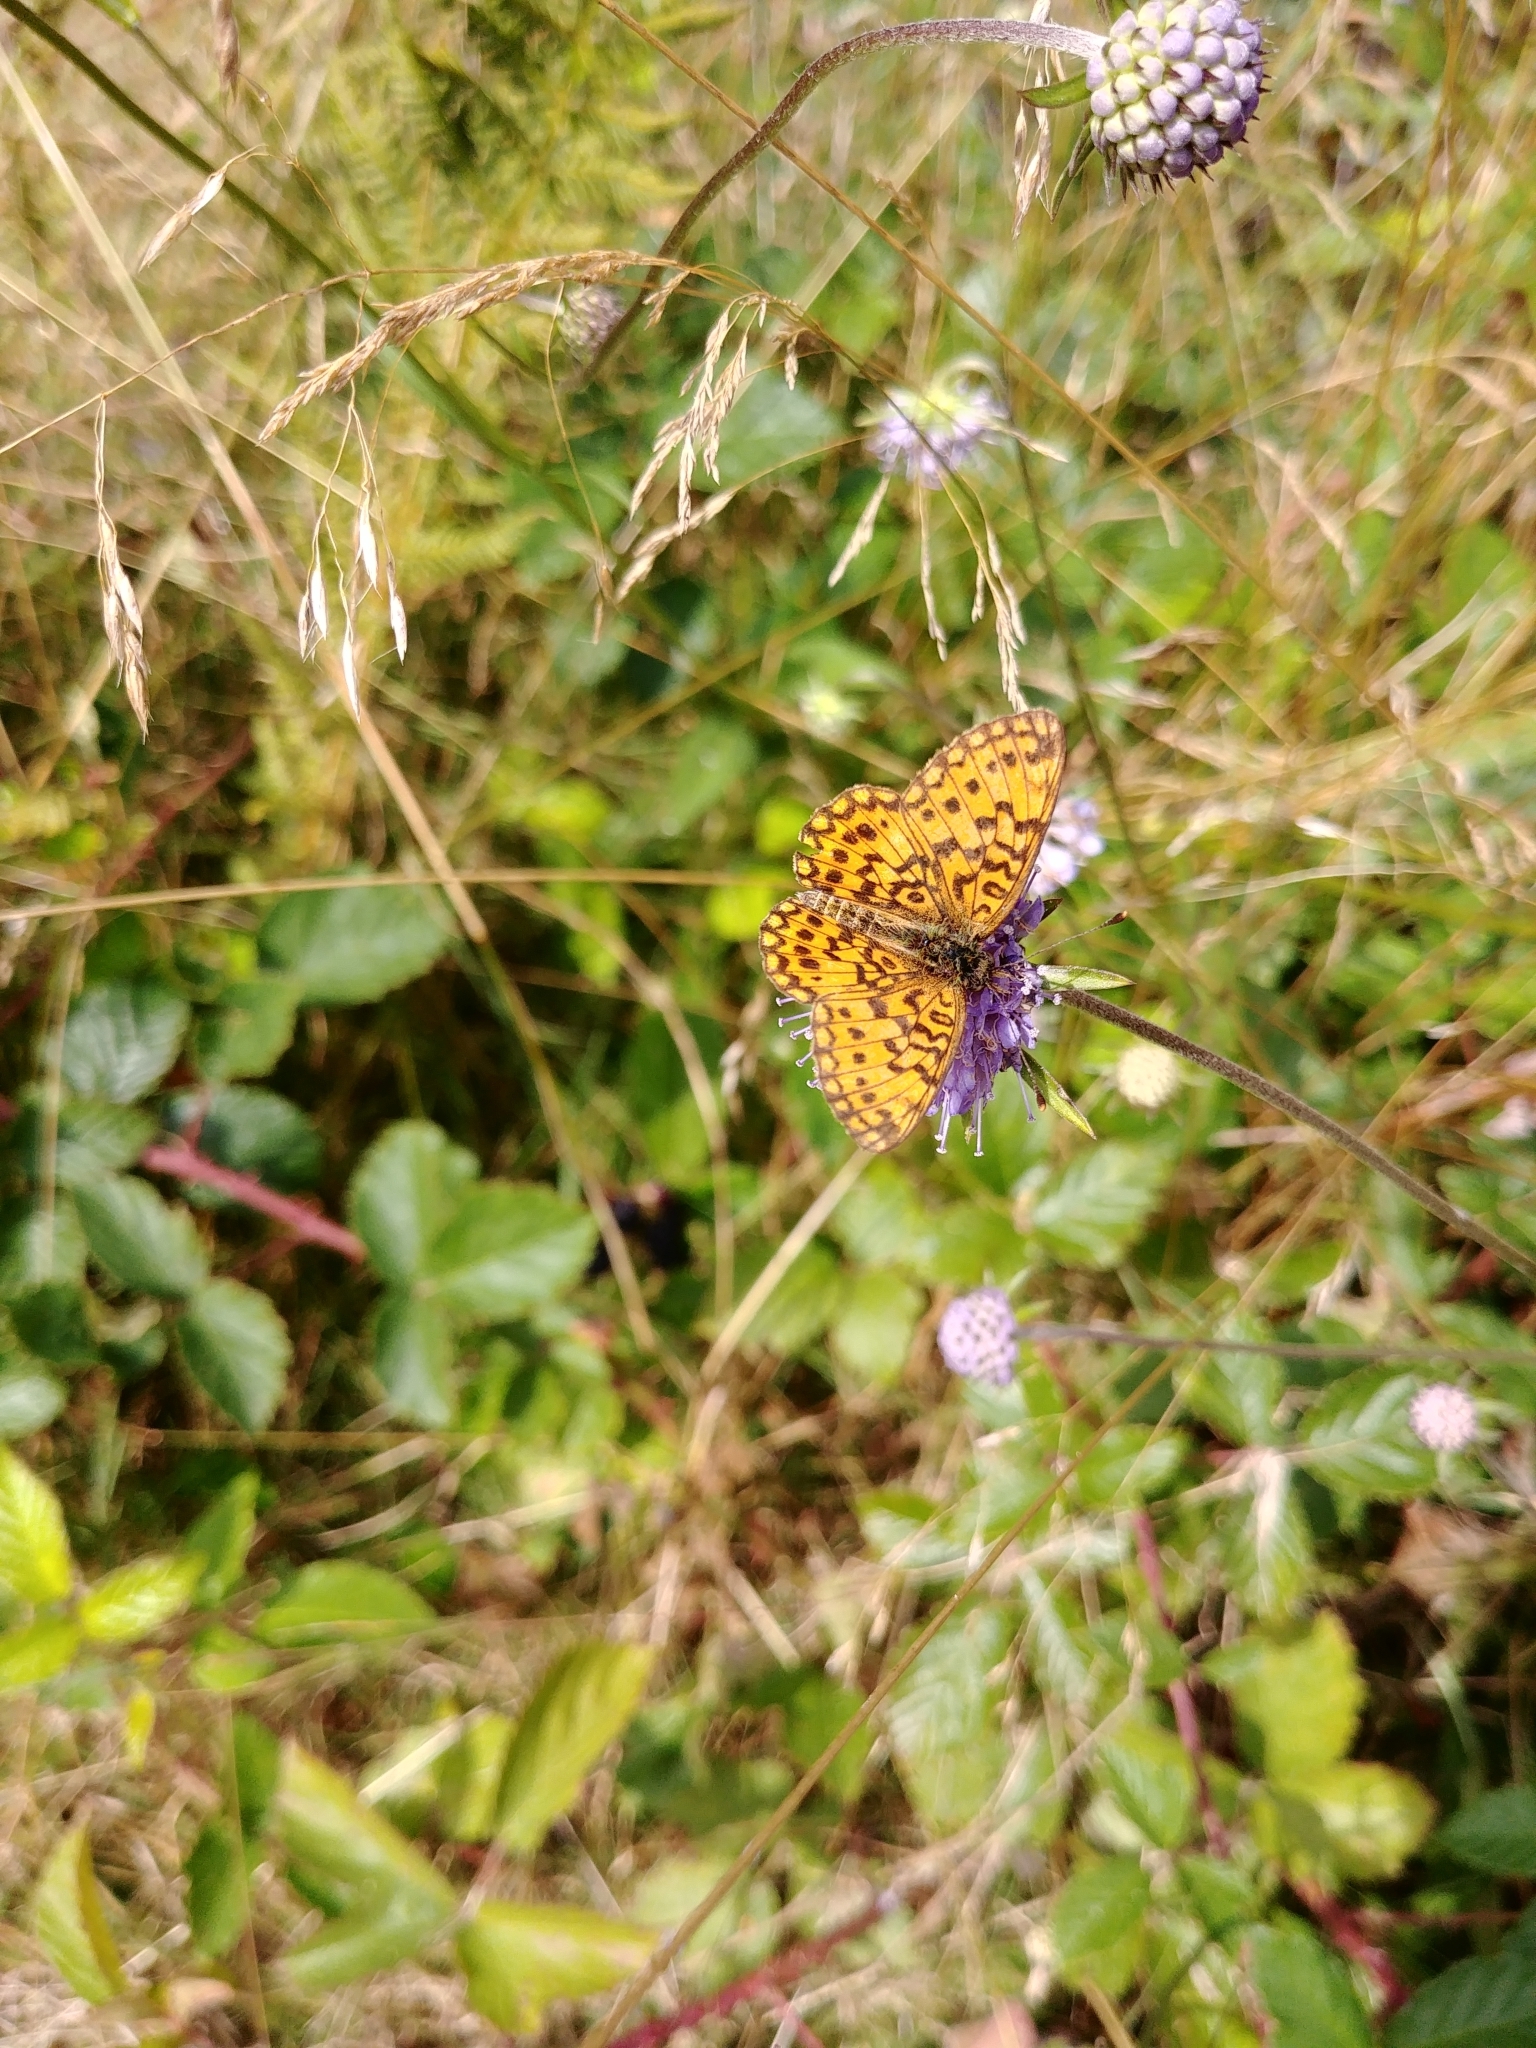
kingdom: Animalia
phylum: Arthropoda
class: Insecta
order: Lepidoptera
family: Nymphalidae
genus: Boloria
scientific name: Boloria selene
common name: Small pearl-bordered fritillary
